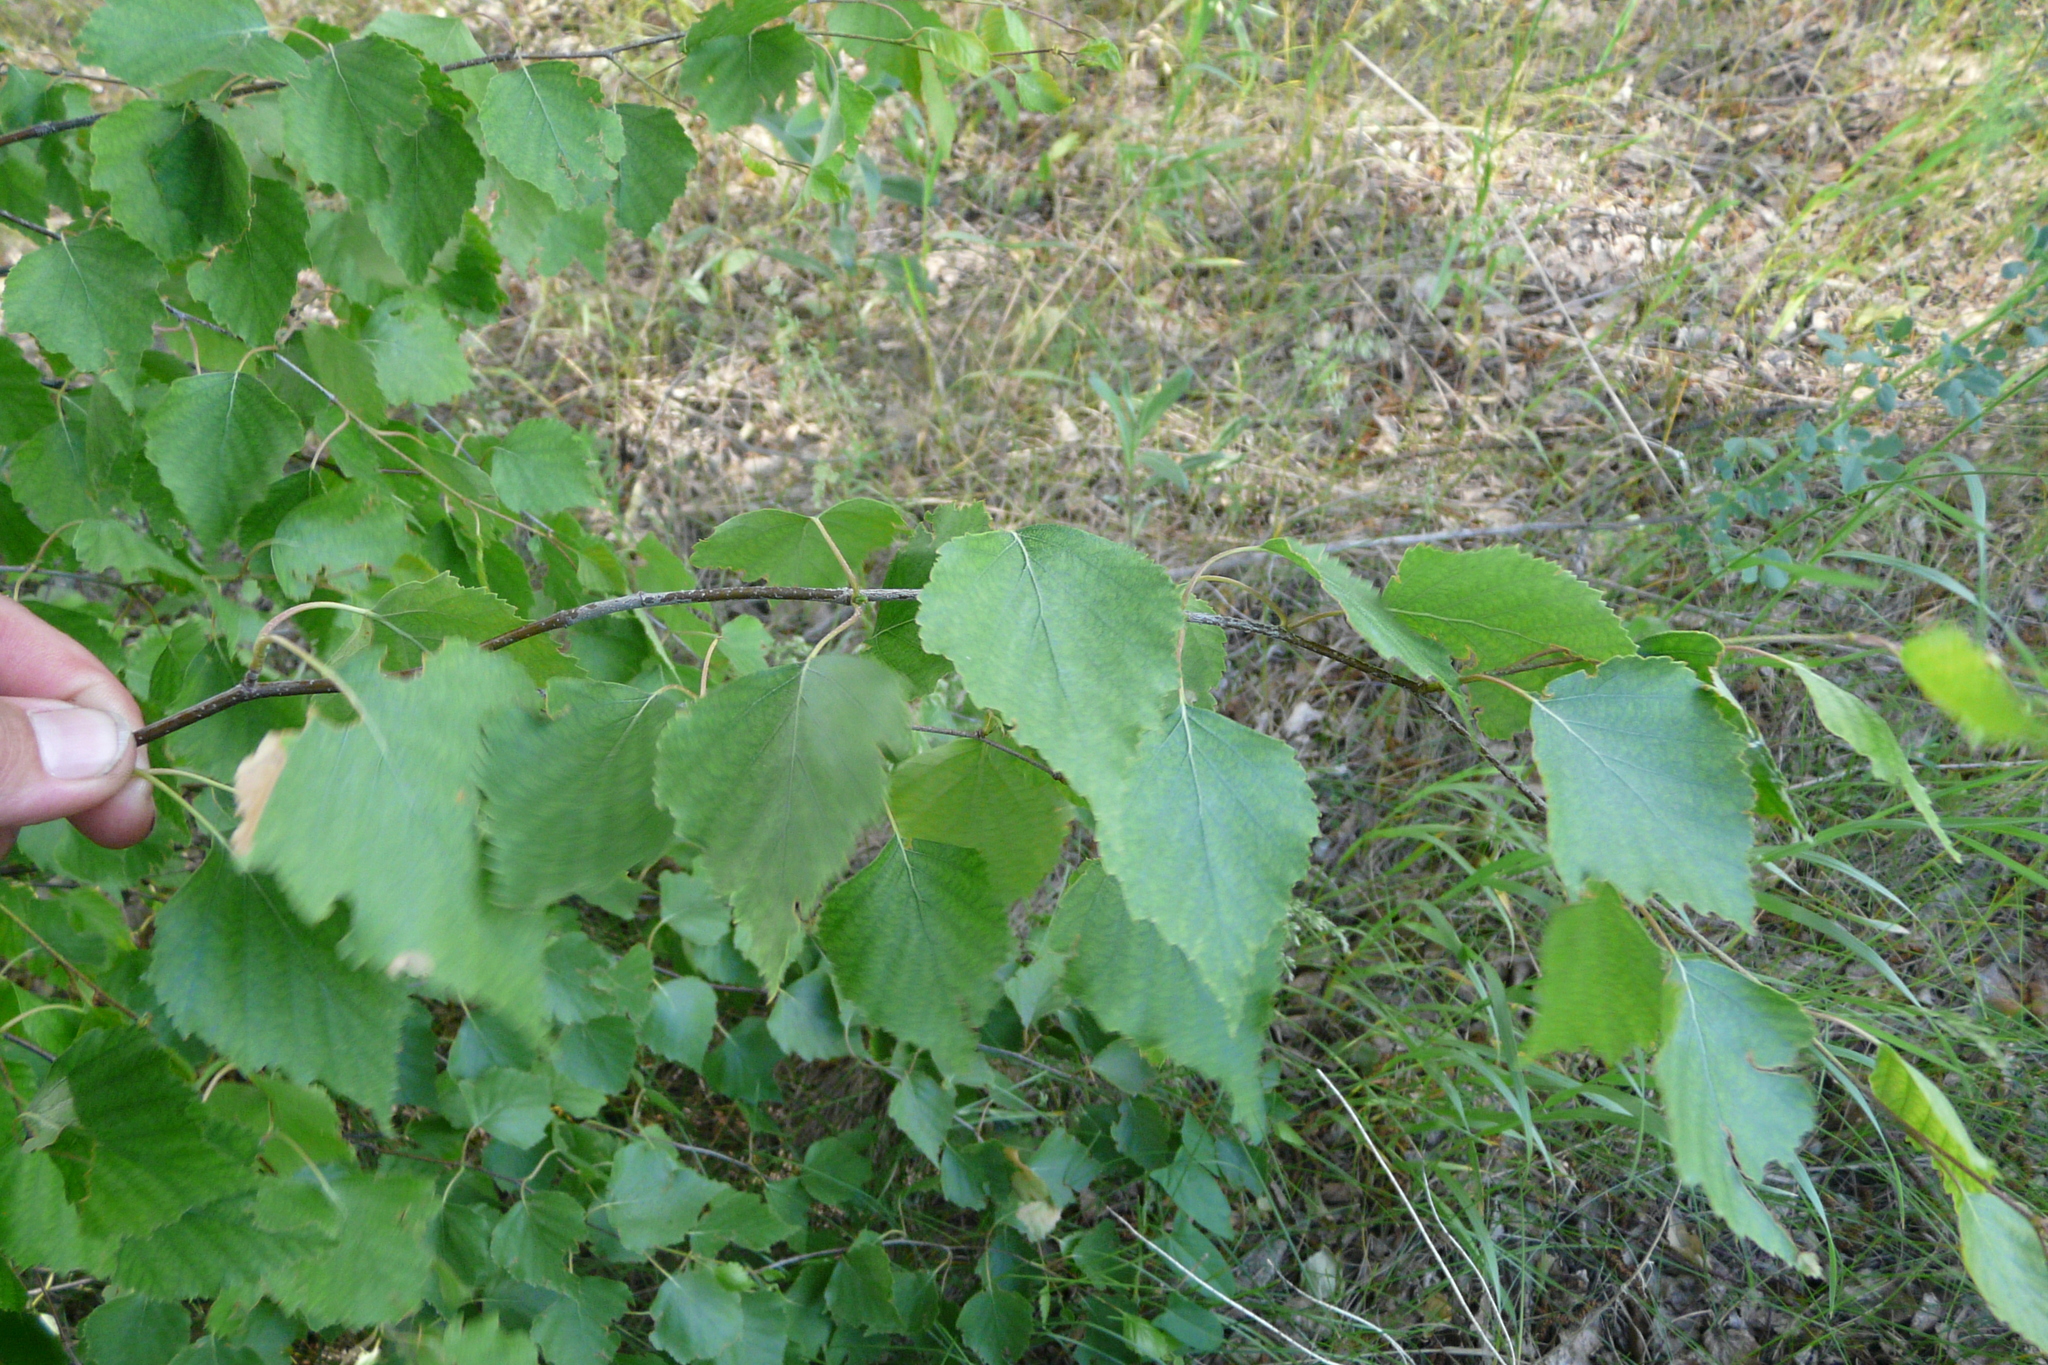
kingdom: Plantae
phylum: Tracheophyta
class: Magnoliopsida
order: Fagales
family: Betulaceae
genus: Betula
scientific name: Betula pendula
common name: Silver birch
